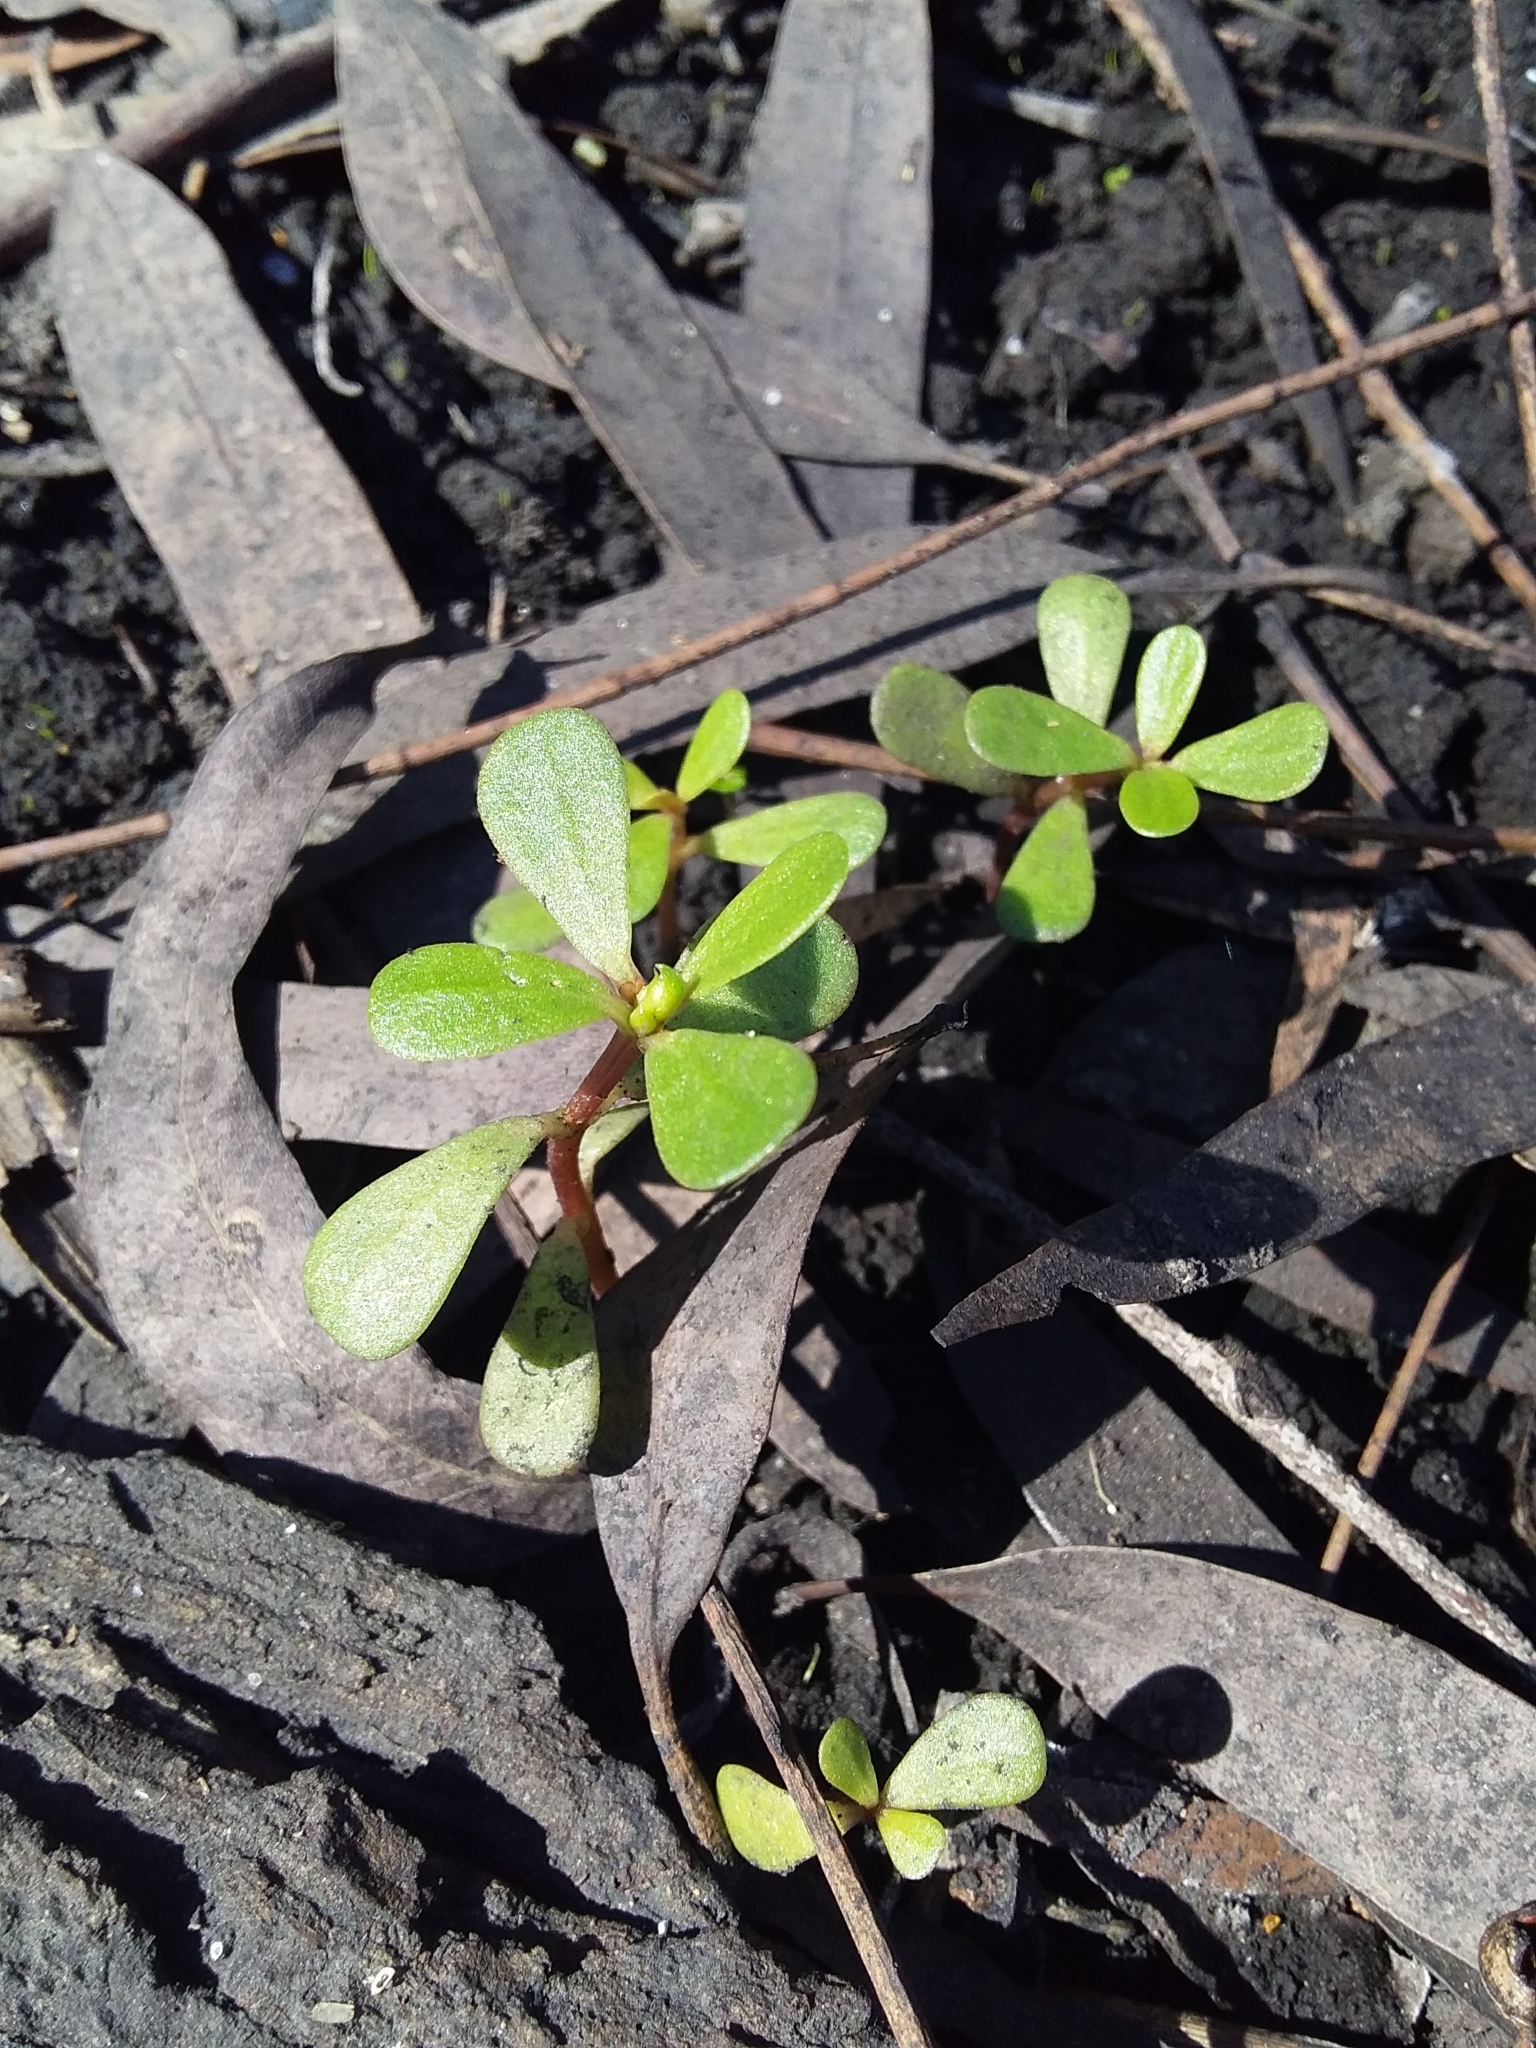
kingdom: Plantae
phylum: Tracheophyta
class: Magnoliopsida
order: Caryophyllales
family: Portulacaceae
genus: Portulaca
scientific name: Portulaca oleracea
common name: Common purslane
